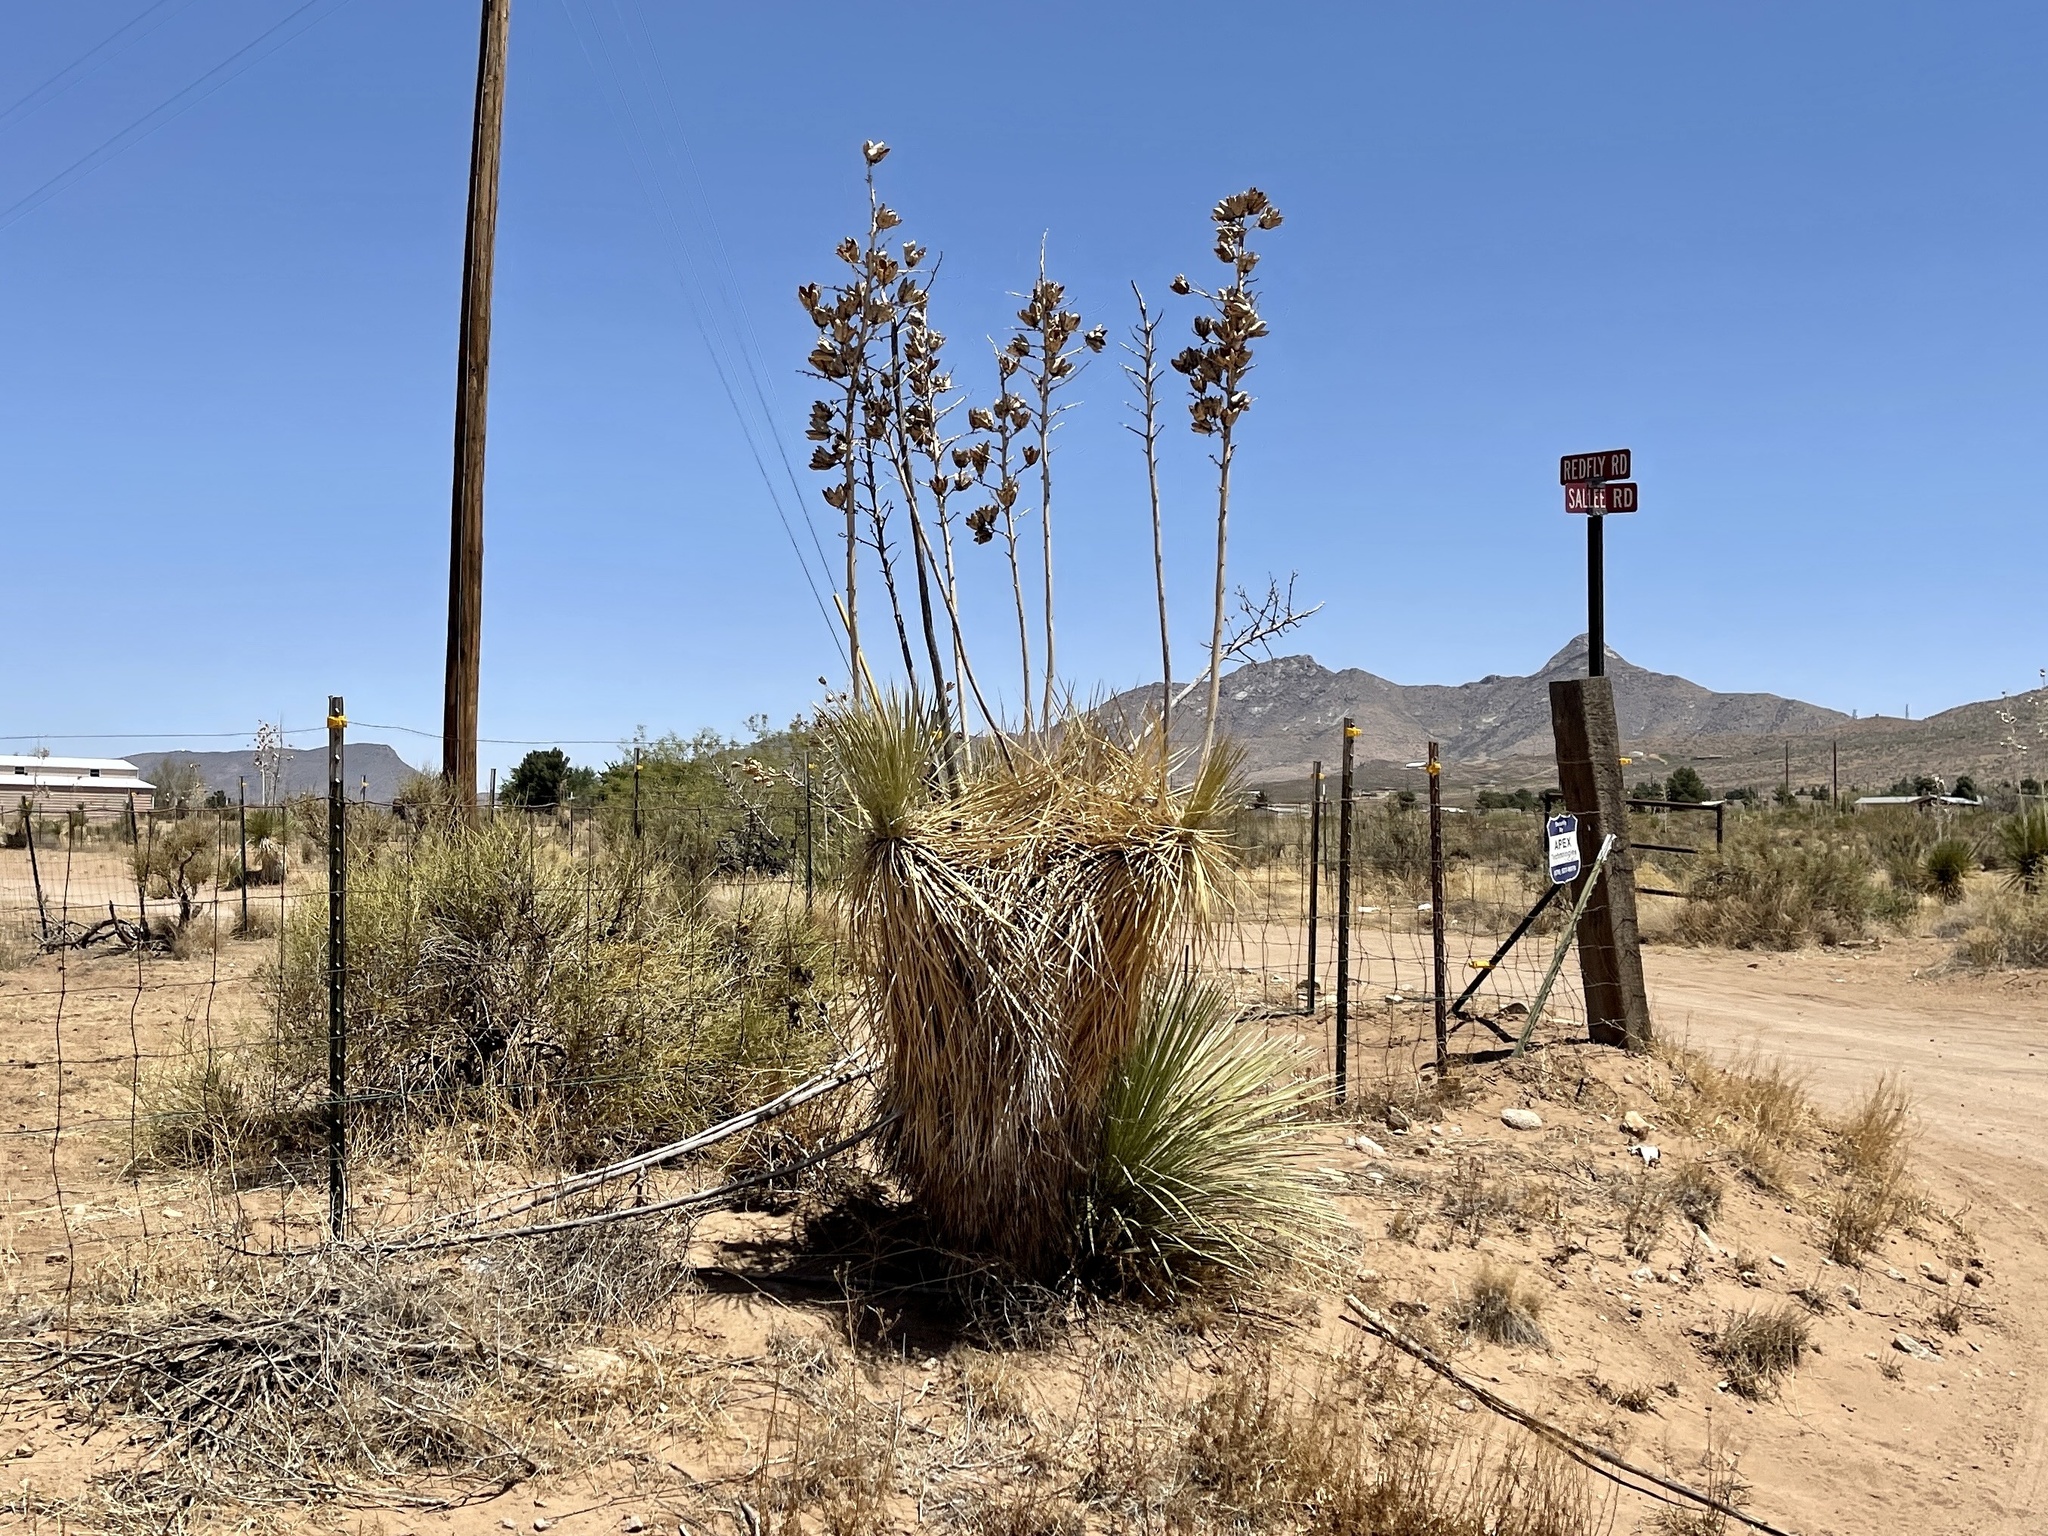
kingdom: Plantae
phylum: Tracheophyta
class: Liliopsida
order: Asparagales
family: Asparagaceae
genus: Yucca
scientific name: Yucca elata
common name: Palmella
